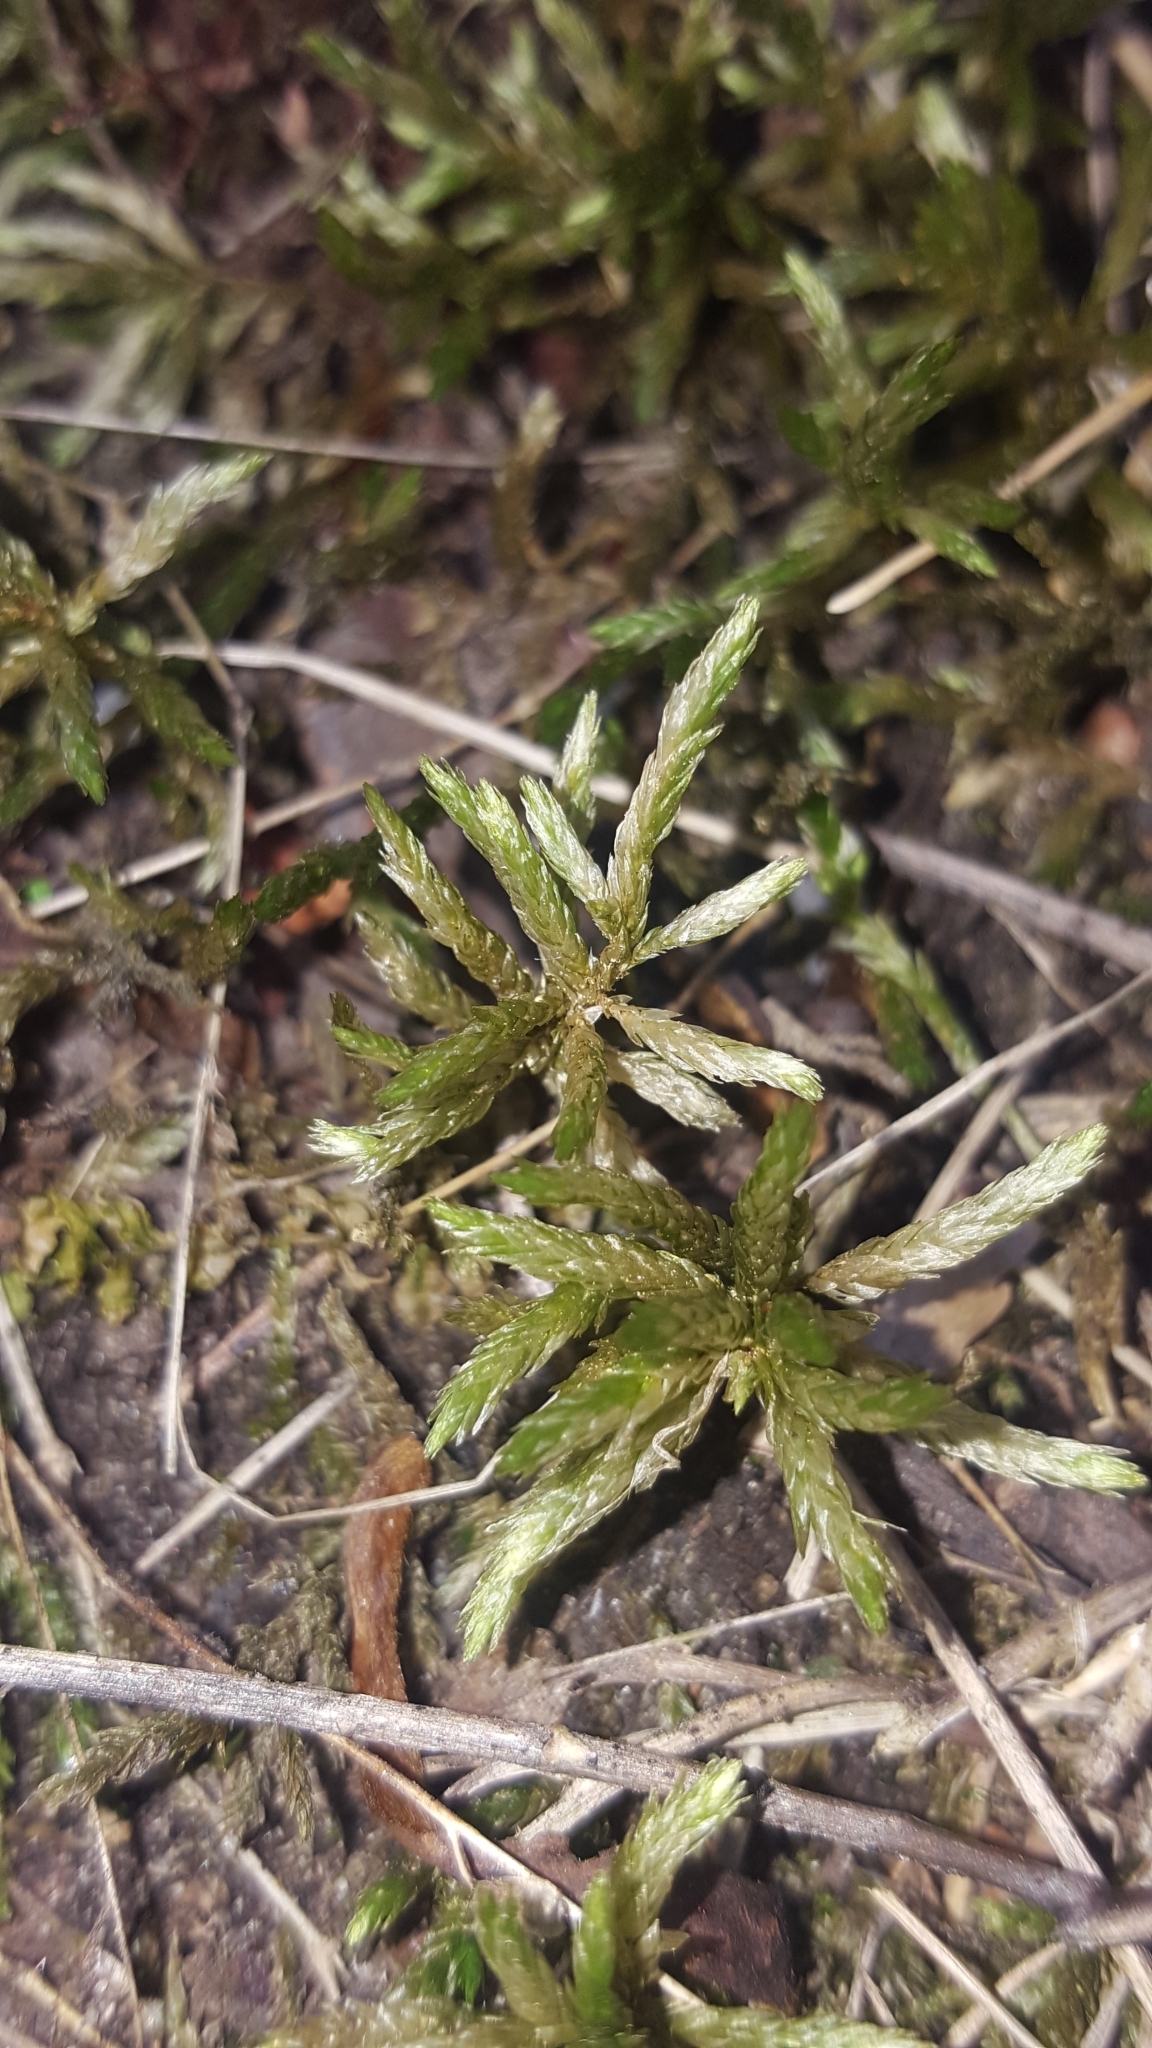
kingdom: Plantae
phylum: Bryophyta
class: Bryopsida
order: Hypnales
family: Climaciaceae
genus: Climacium
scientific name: Climacium dendroides
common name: Northern tree moss
